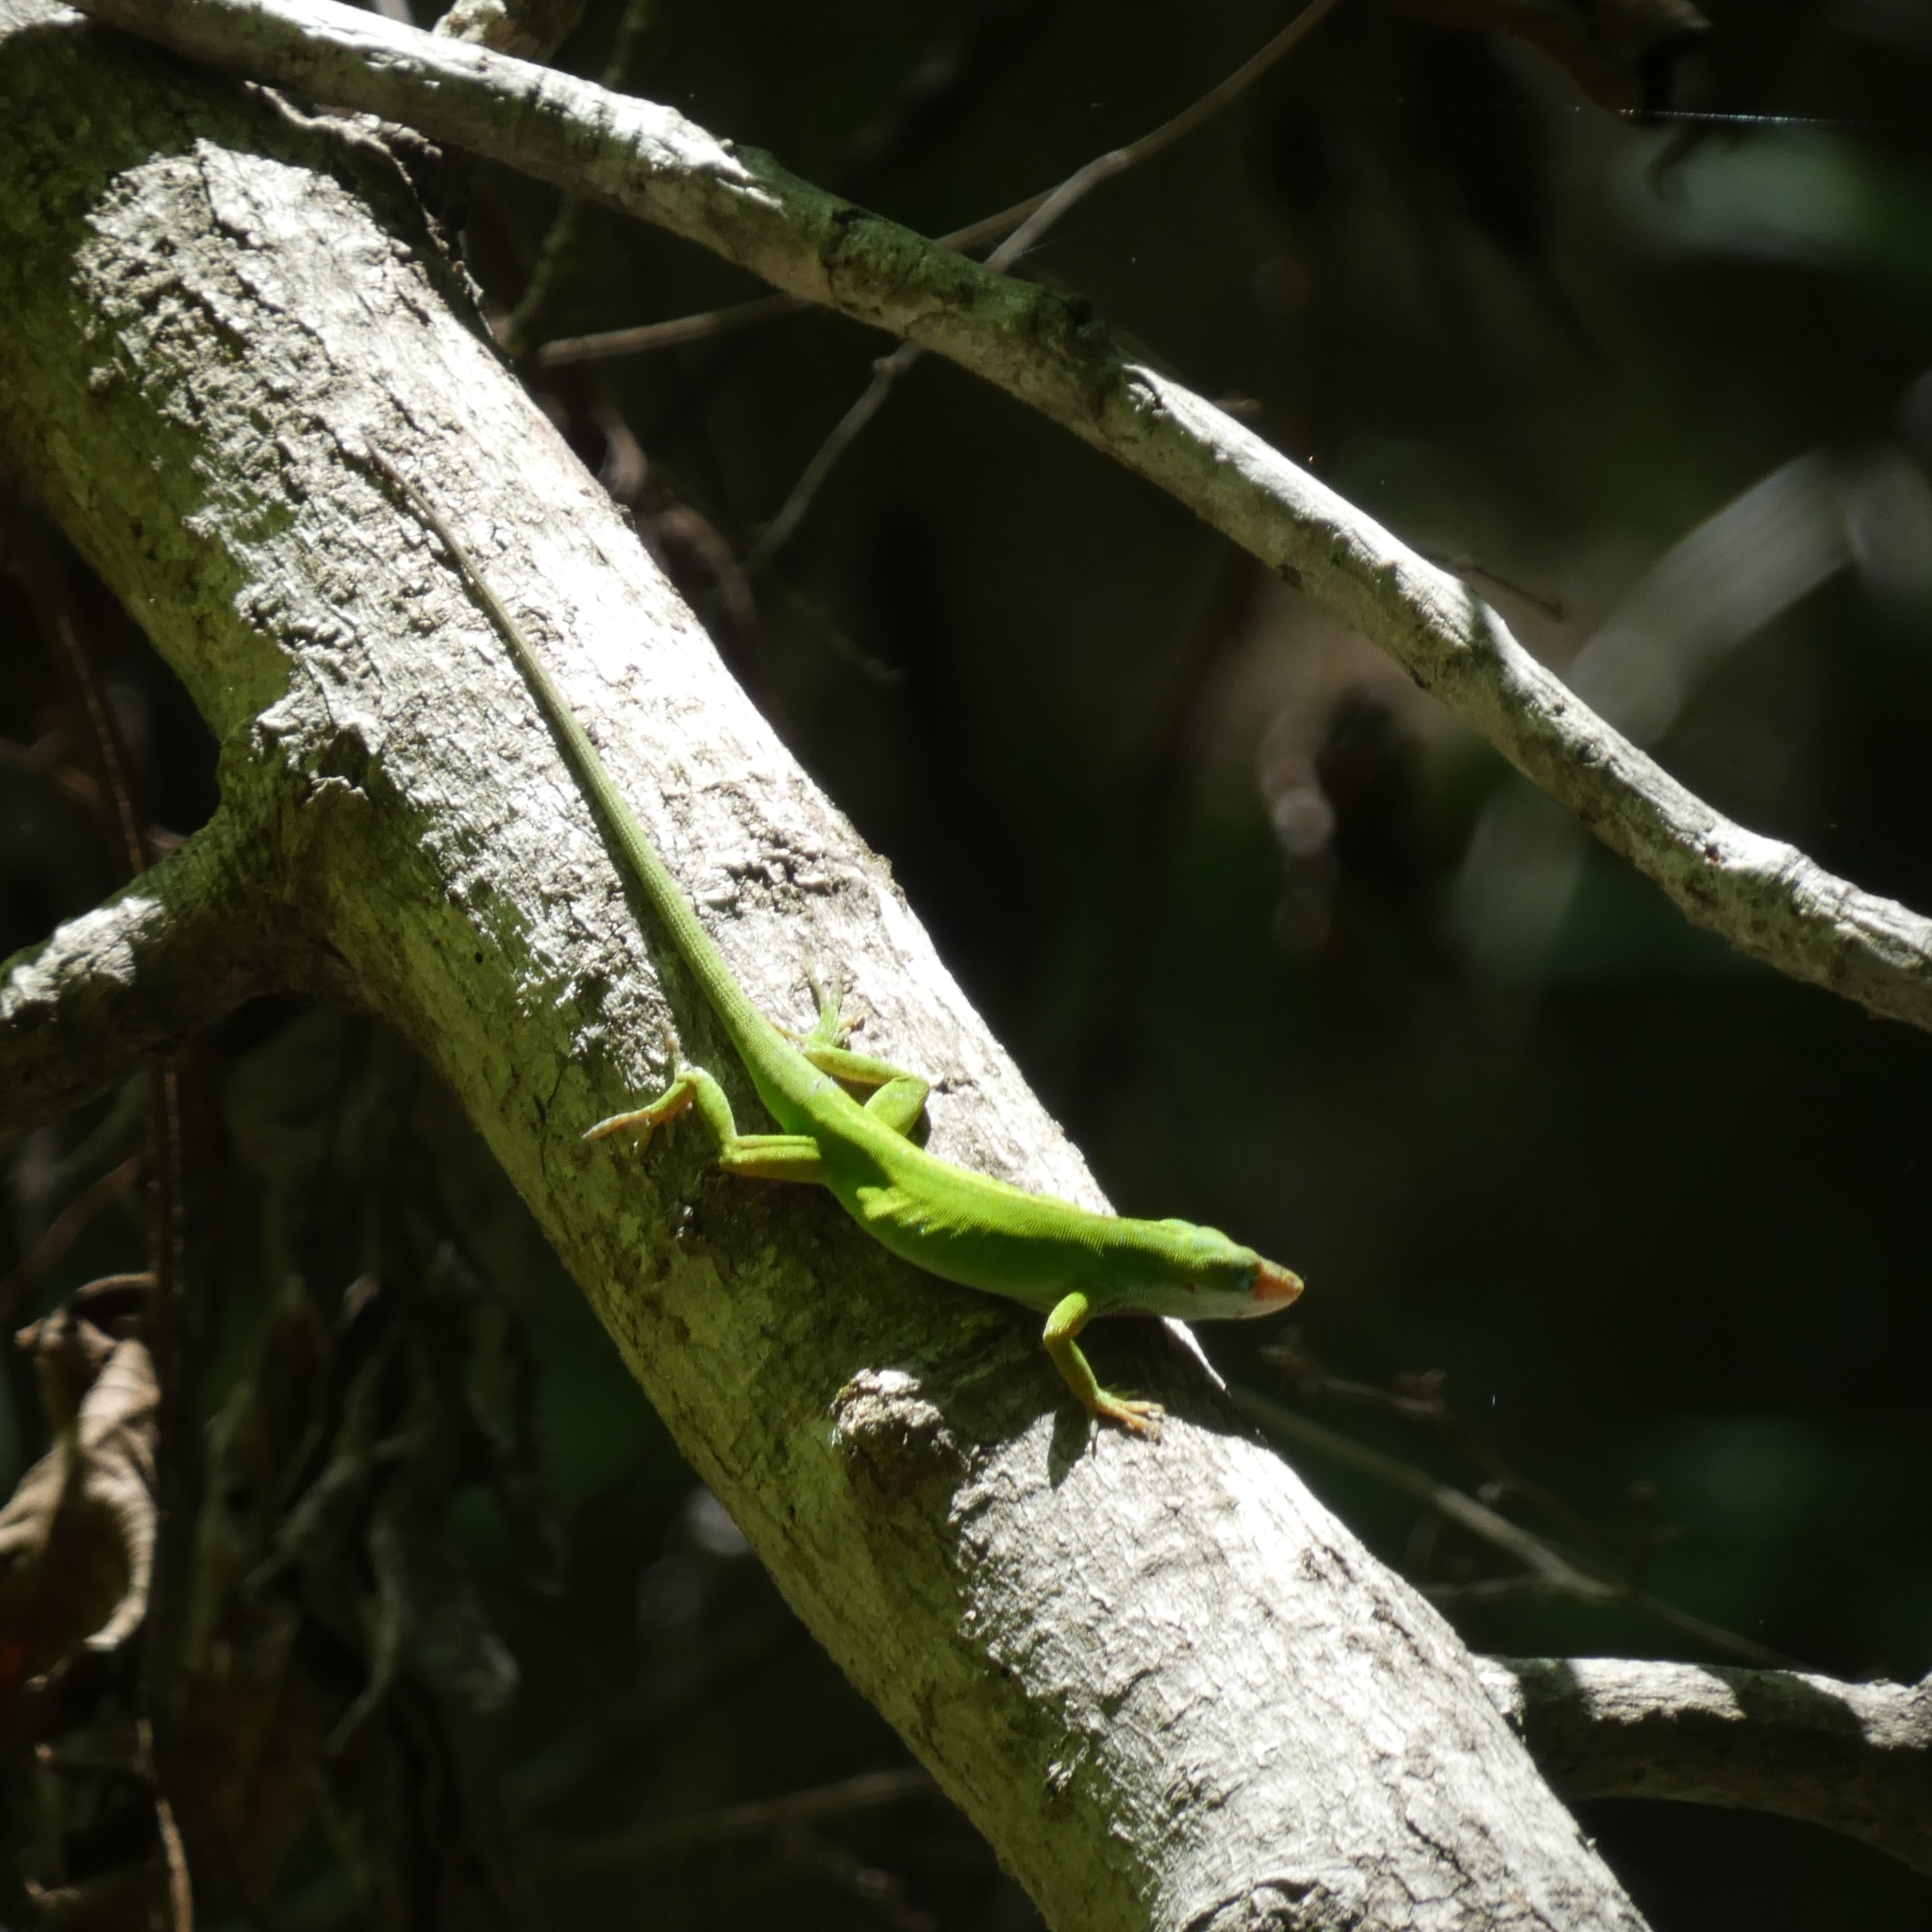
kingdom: Animalia
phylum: Chordata
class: Squamata
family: Dactyloidae
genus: Anolis
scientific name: Anolis carolinensis
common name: Green anole
